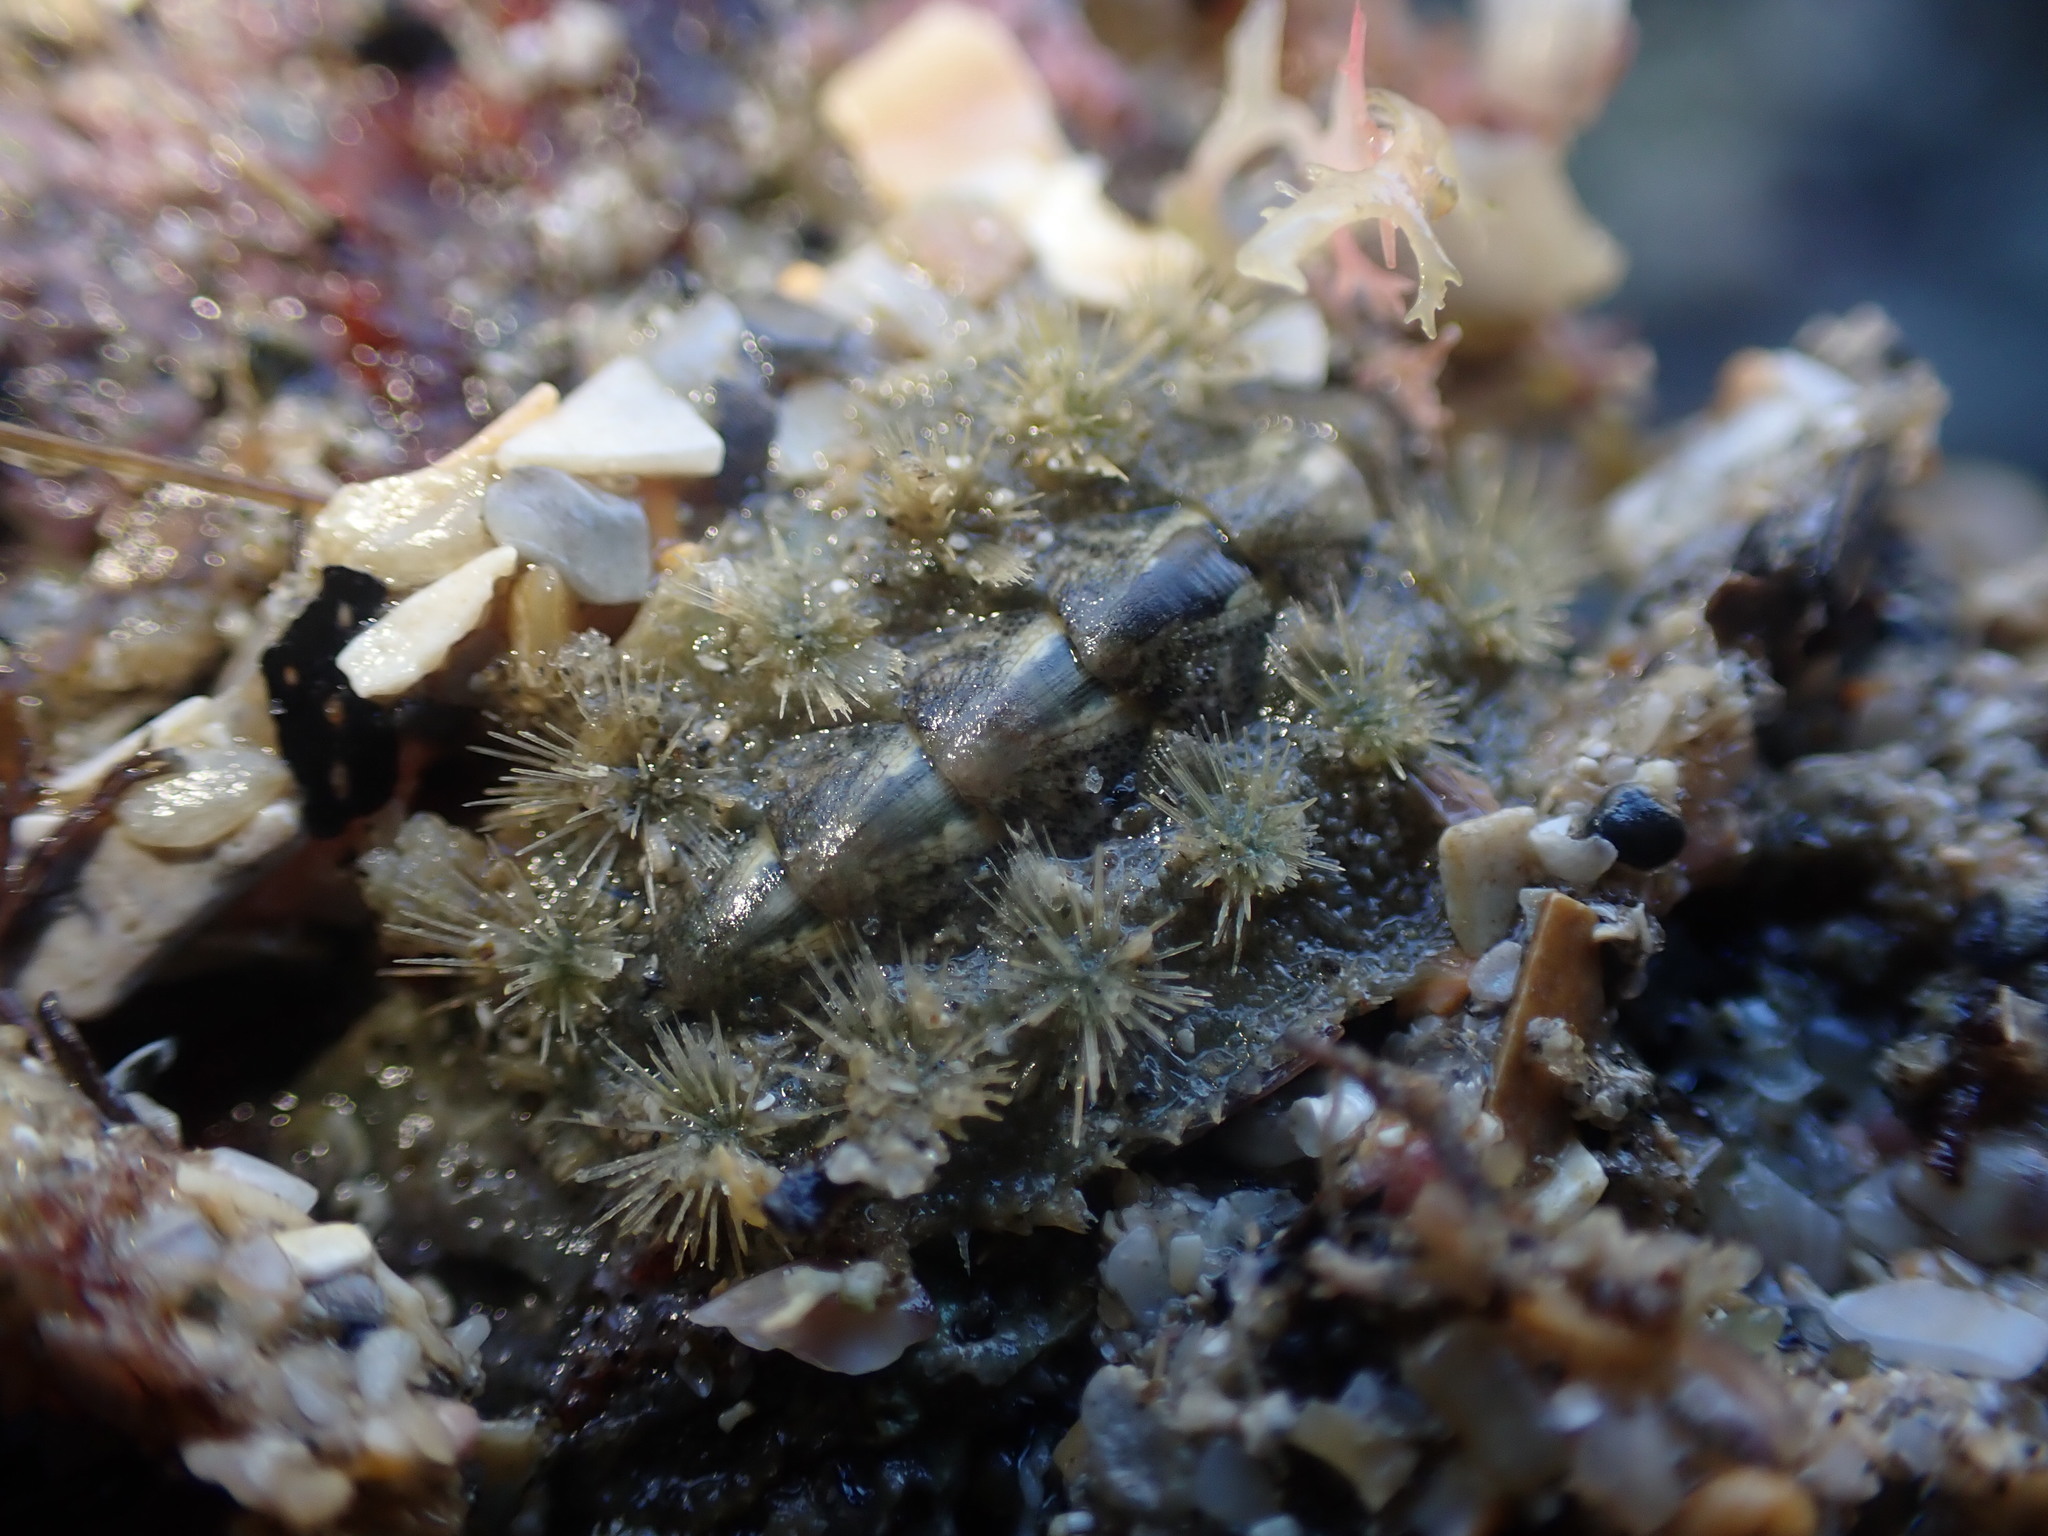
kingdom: Animalia
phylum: Mollusca
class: Polyplacophora
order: Chitonida
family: Acanthochitonidae
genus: Acanthochitona
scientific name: Acanthochitona zelandica
